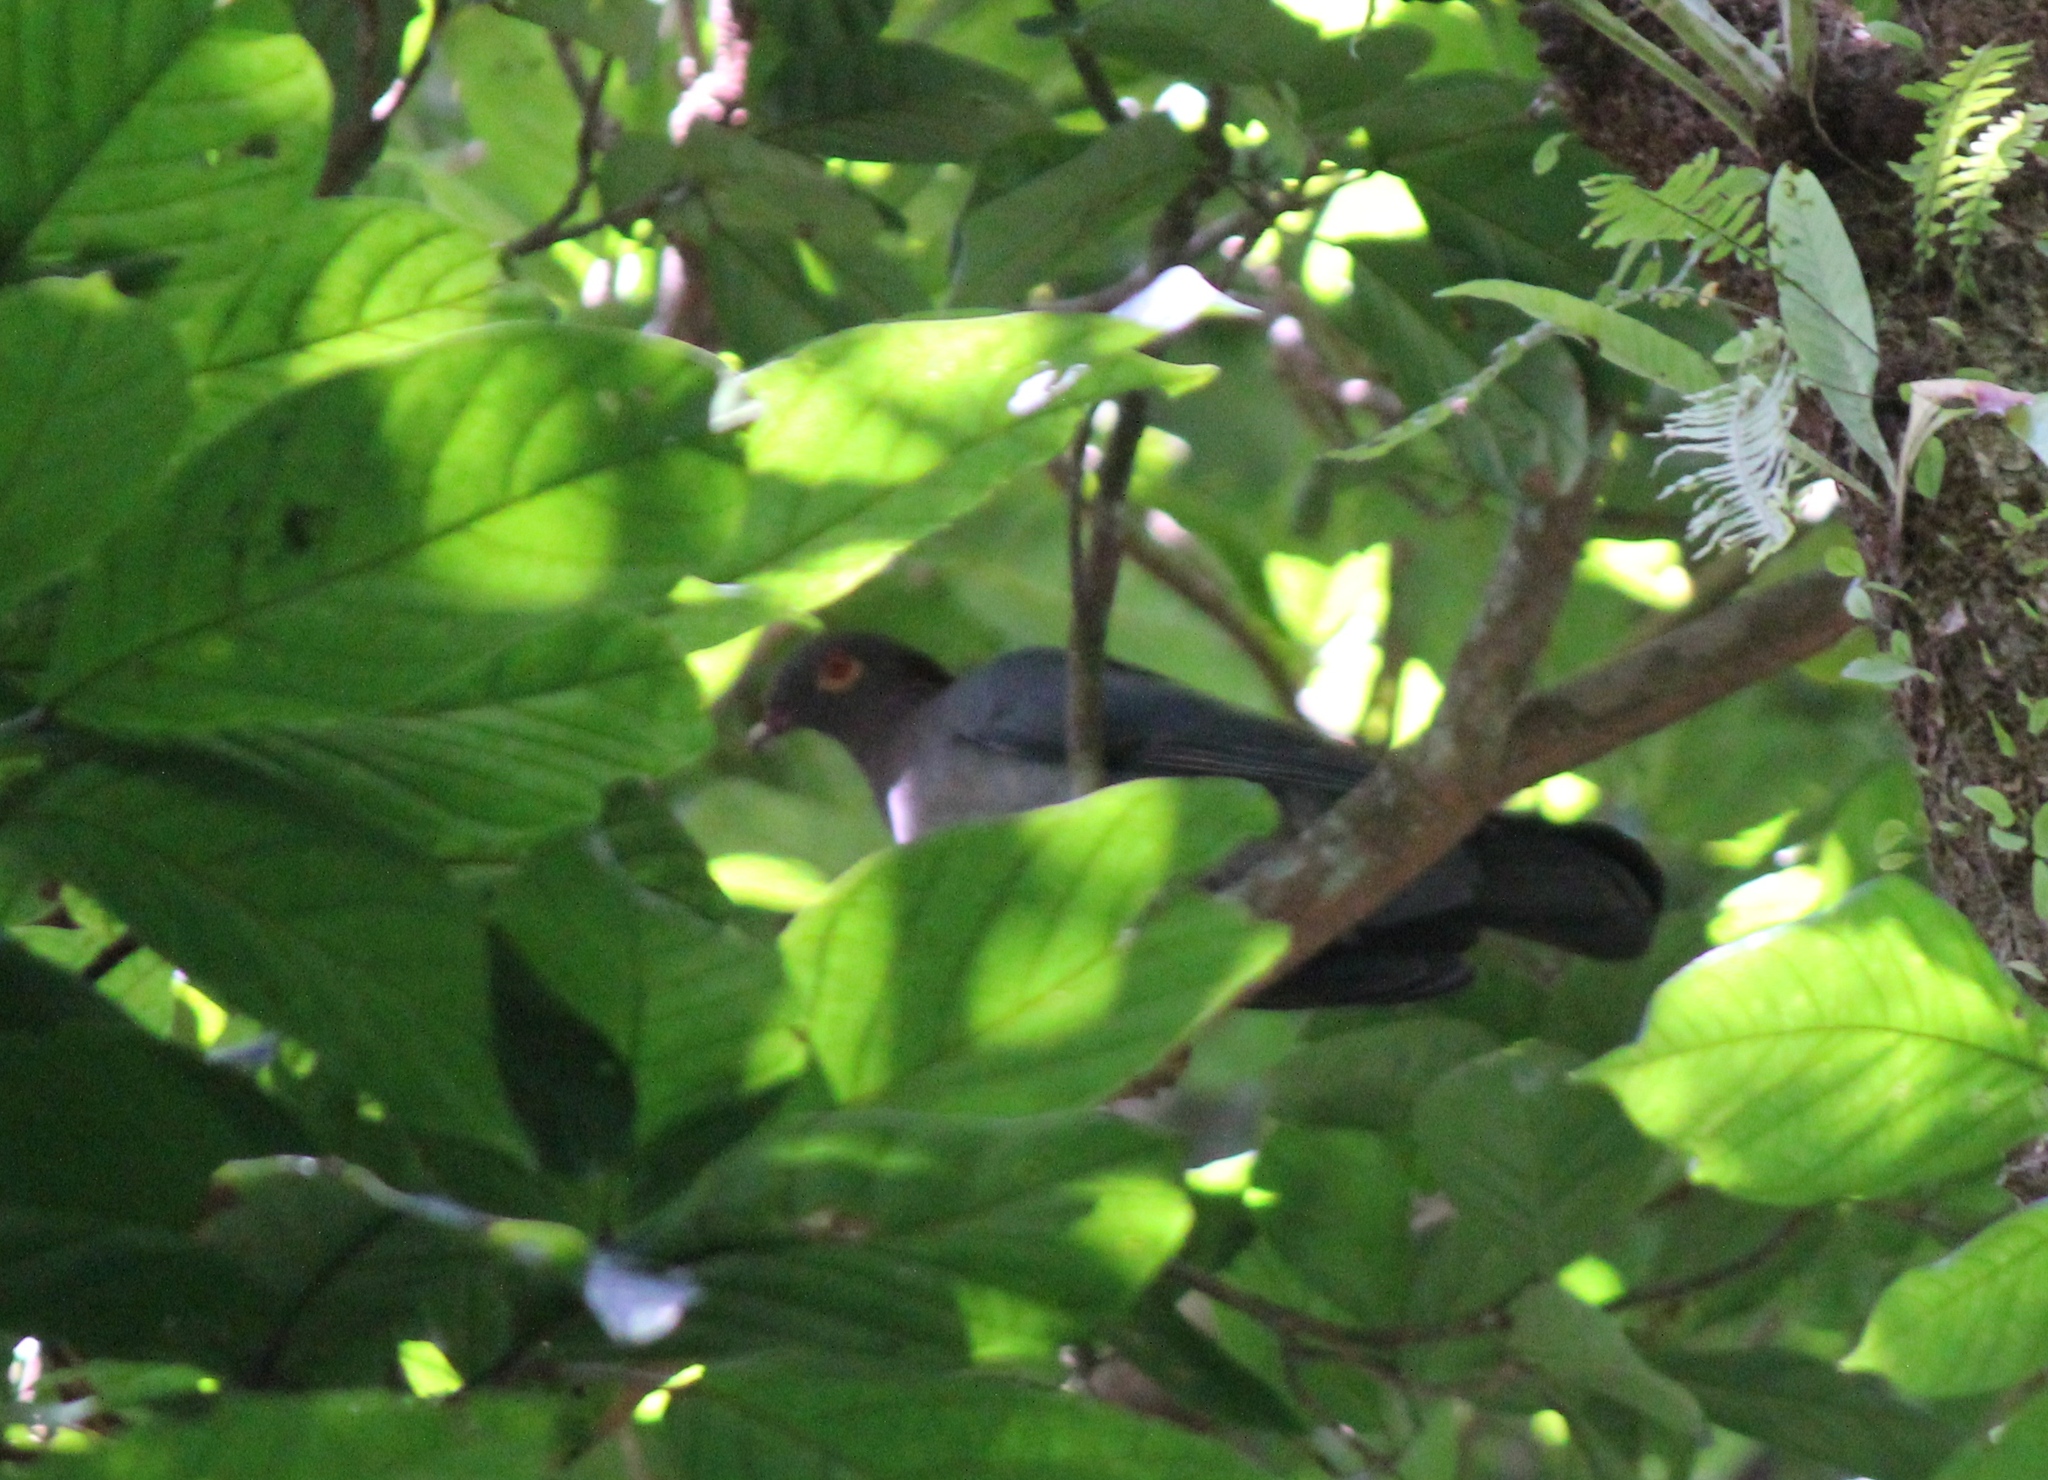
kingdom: Animalia
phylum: Chordata
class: Aves
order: Columbiformes
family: Columbidae
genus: Patagioenas
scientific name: Patagioenas squamosa
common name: Scaly-naped pigeon
